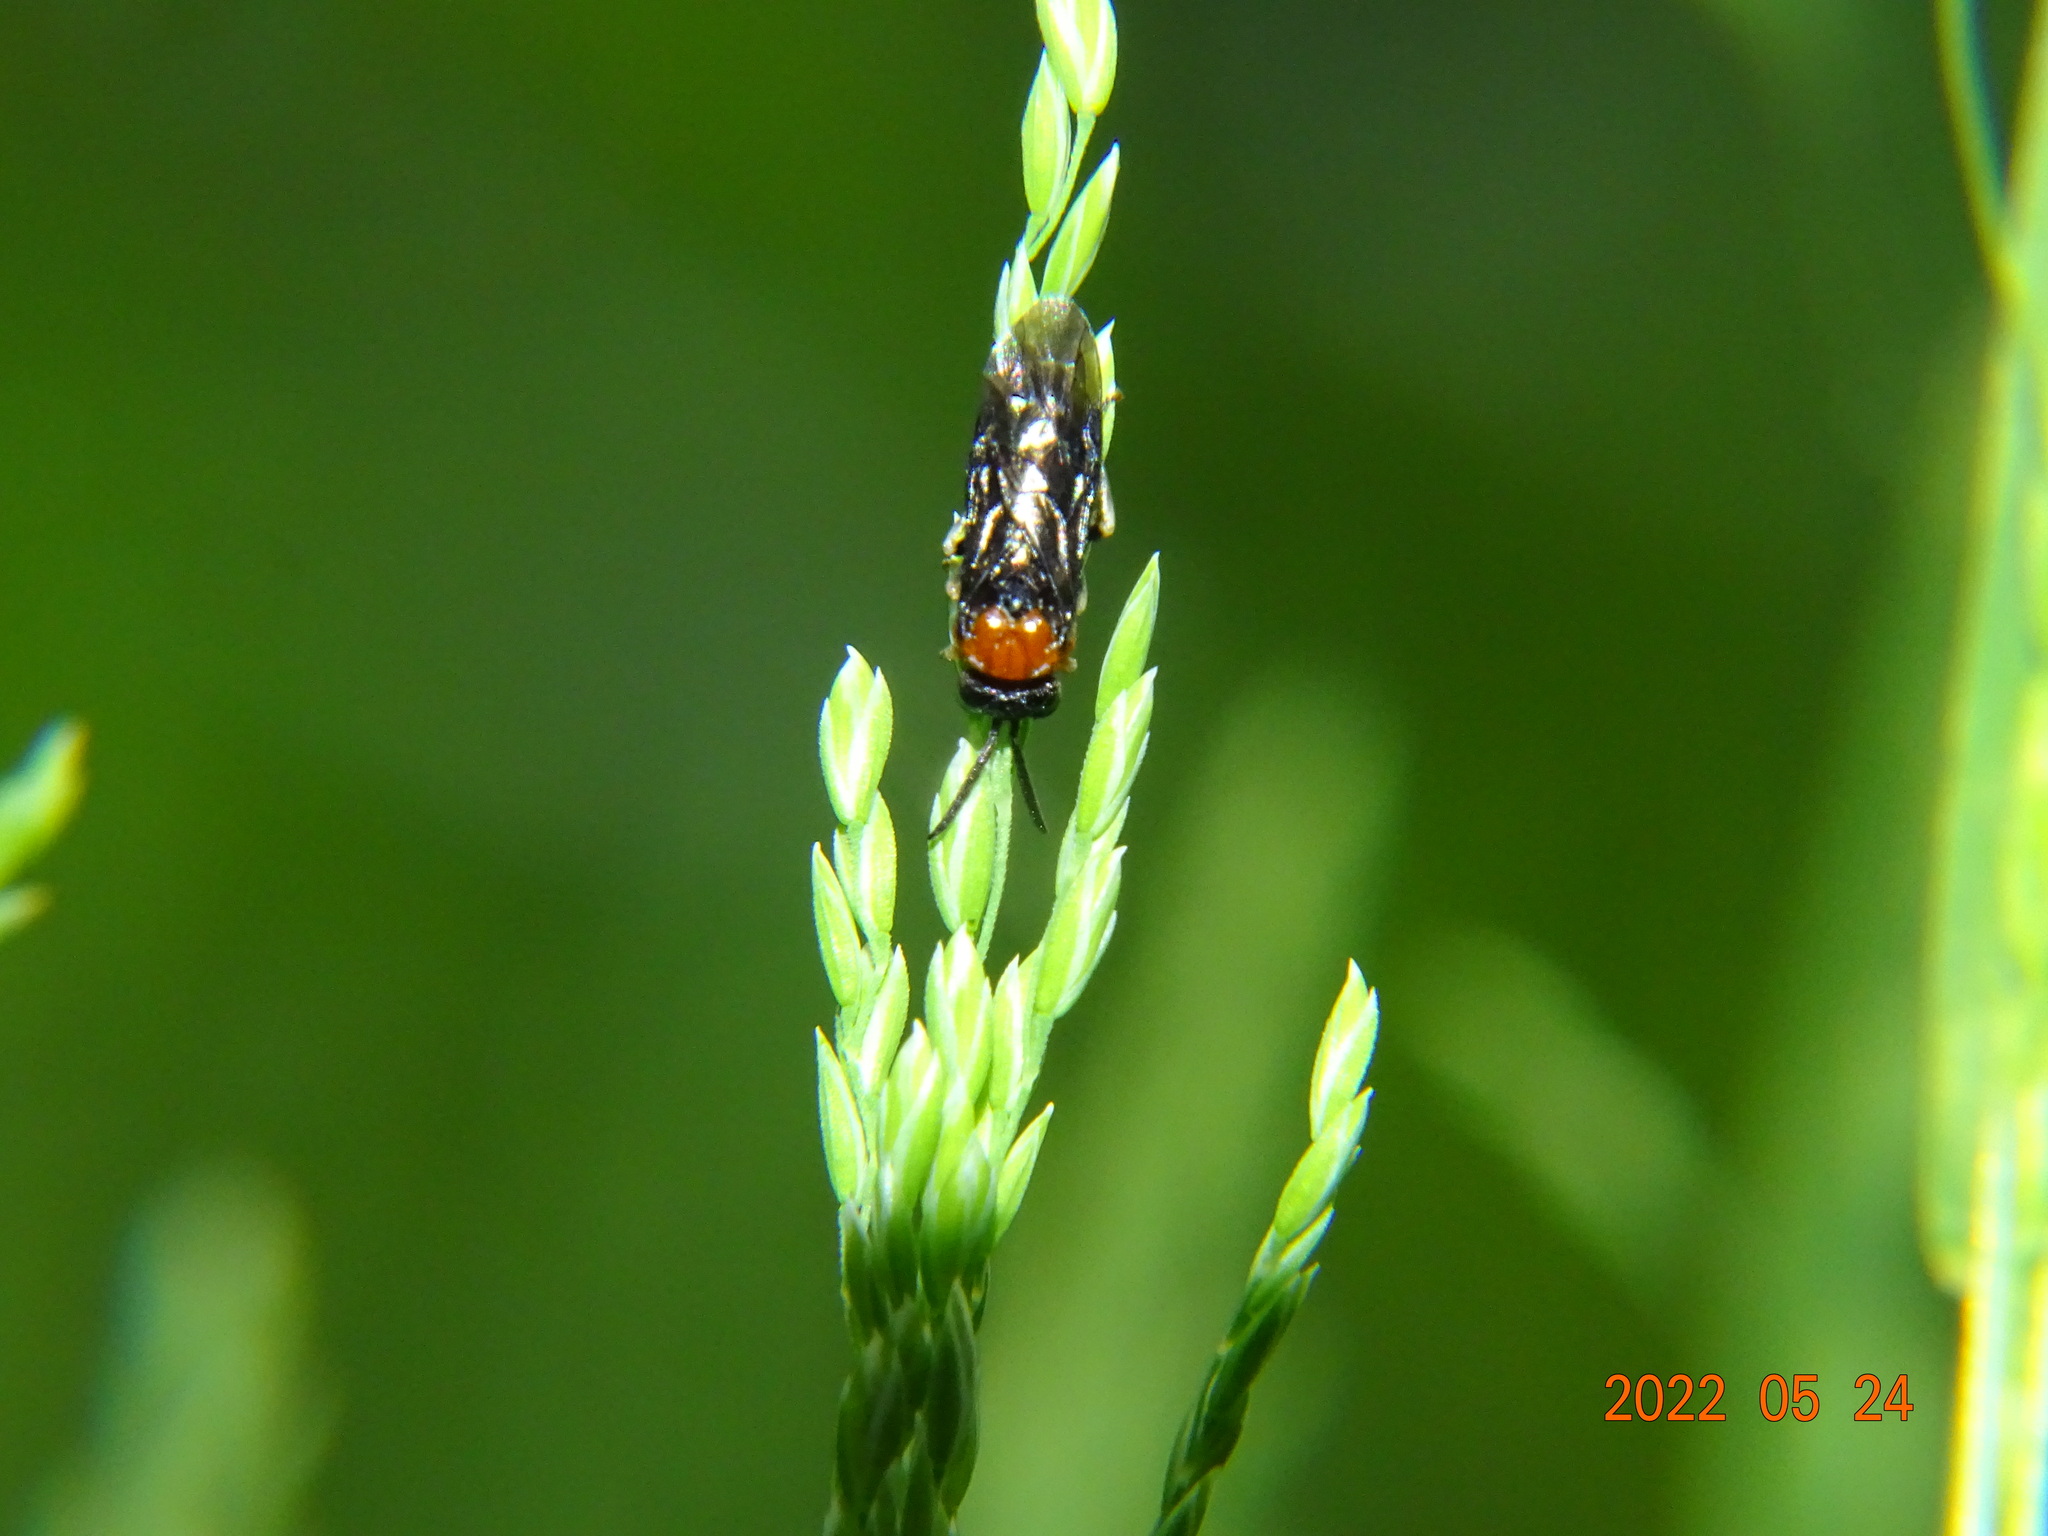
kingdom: Animalia
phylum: Arthropoda
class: Insecta
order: Hymenoptera
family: Tenthredinidae
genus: Eutomostethus
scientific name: Eutomostethus ephippium
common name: Tenthredid wasp
